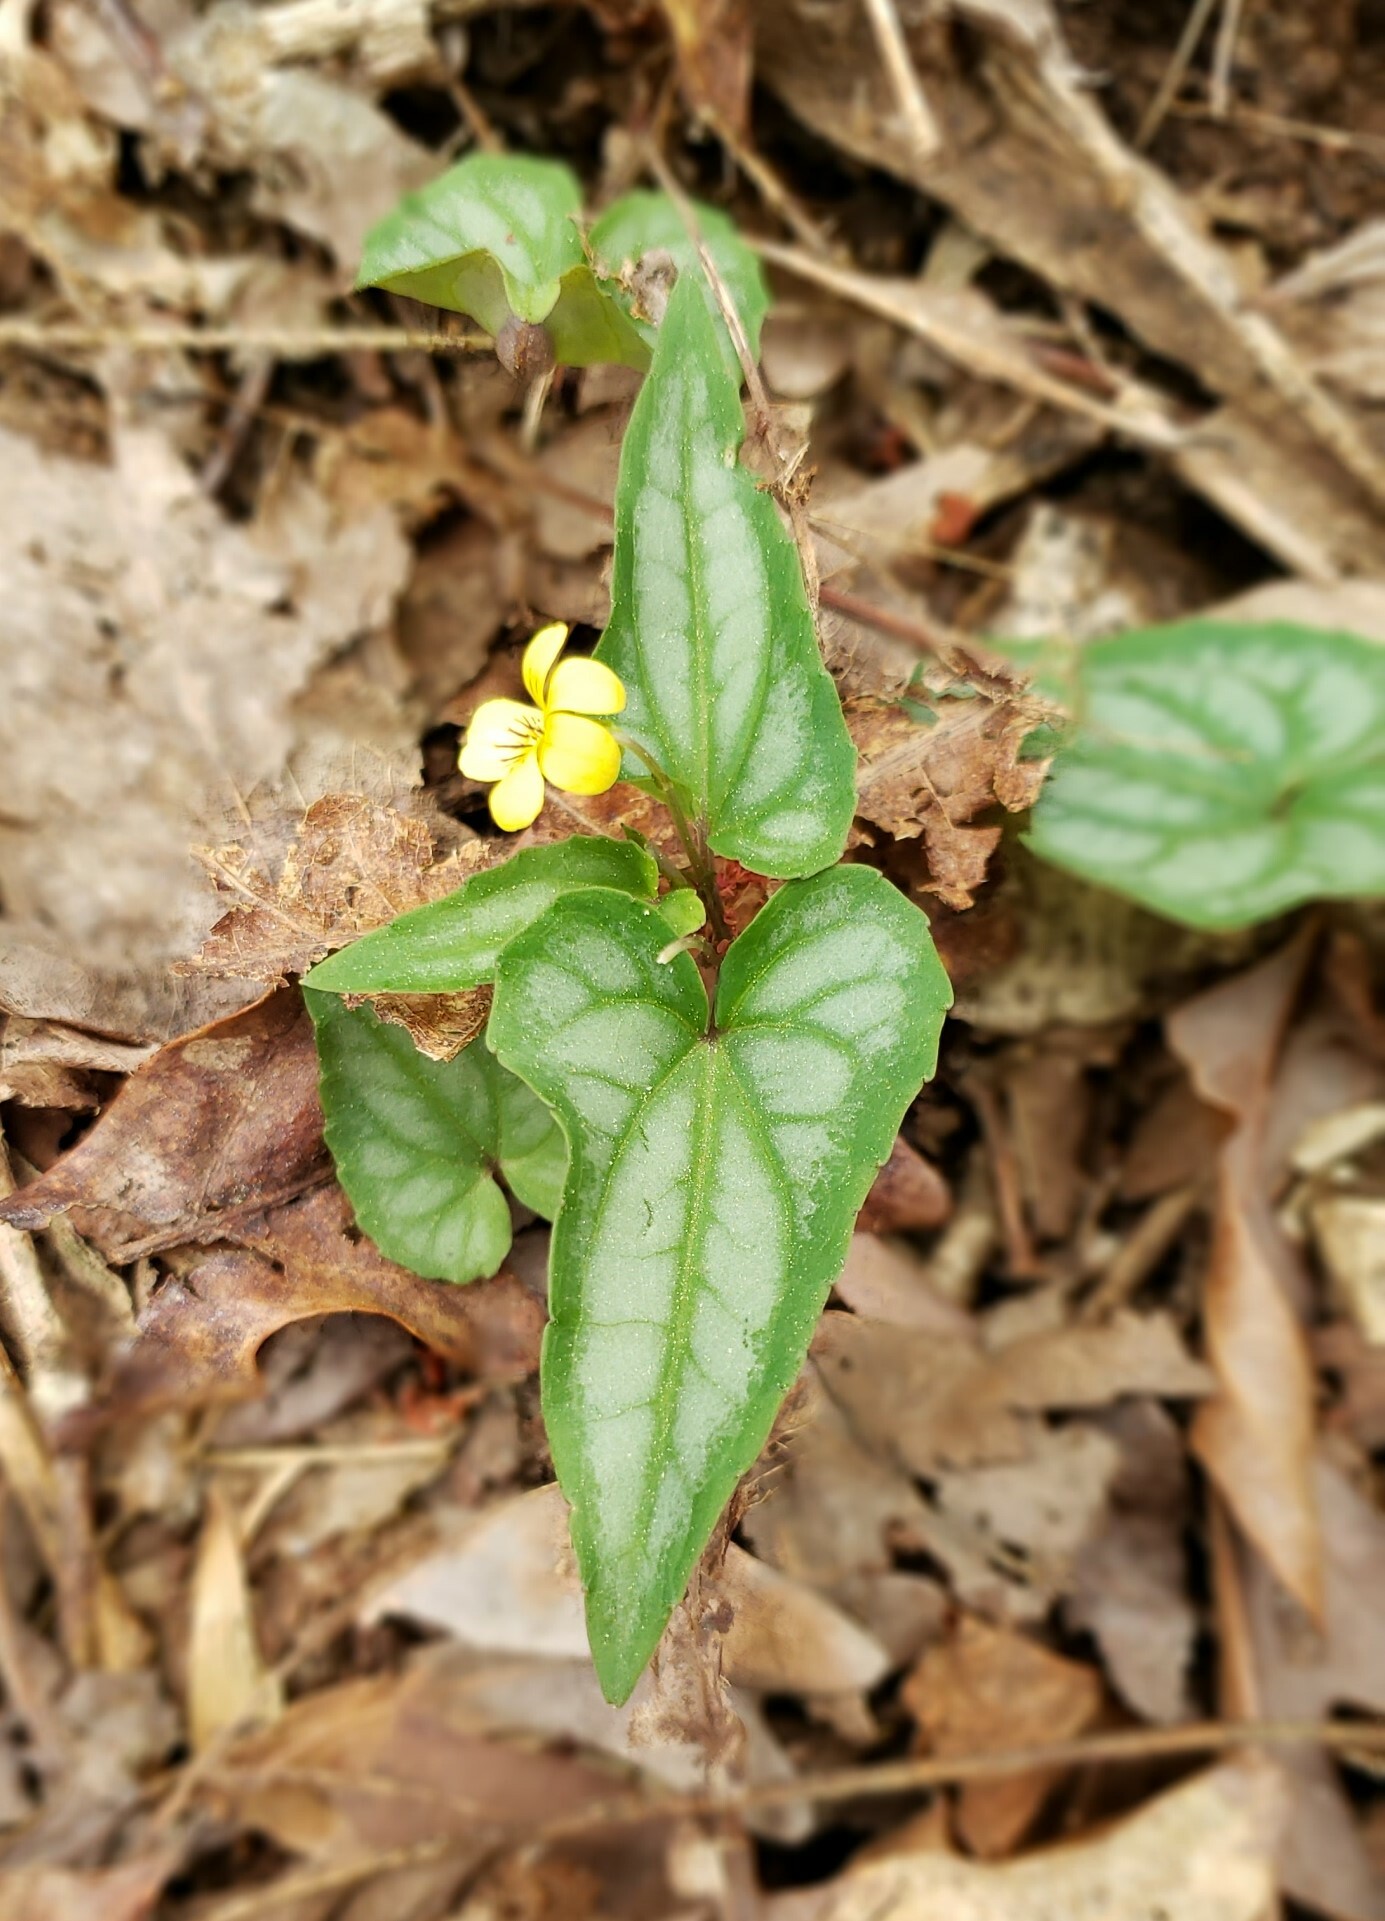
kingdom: Plantae
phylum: Tracheophyta
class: Magnoliopsida
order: Malpighiales
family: Violaceae
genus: Viola
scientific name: Viola hastata
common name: Spear-leaf violet
